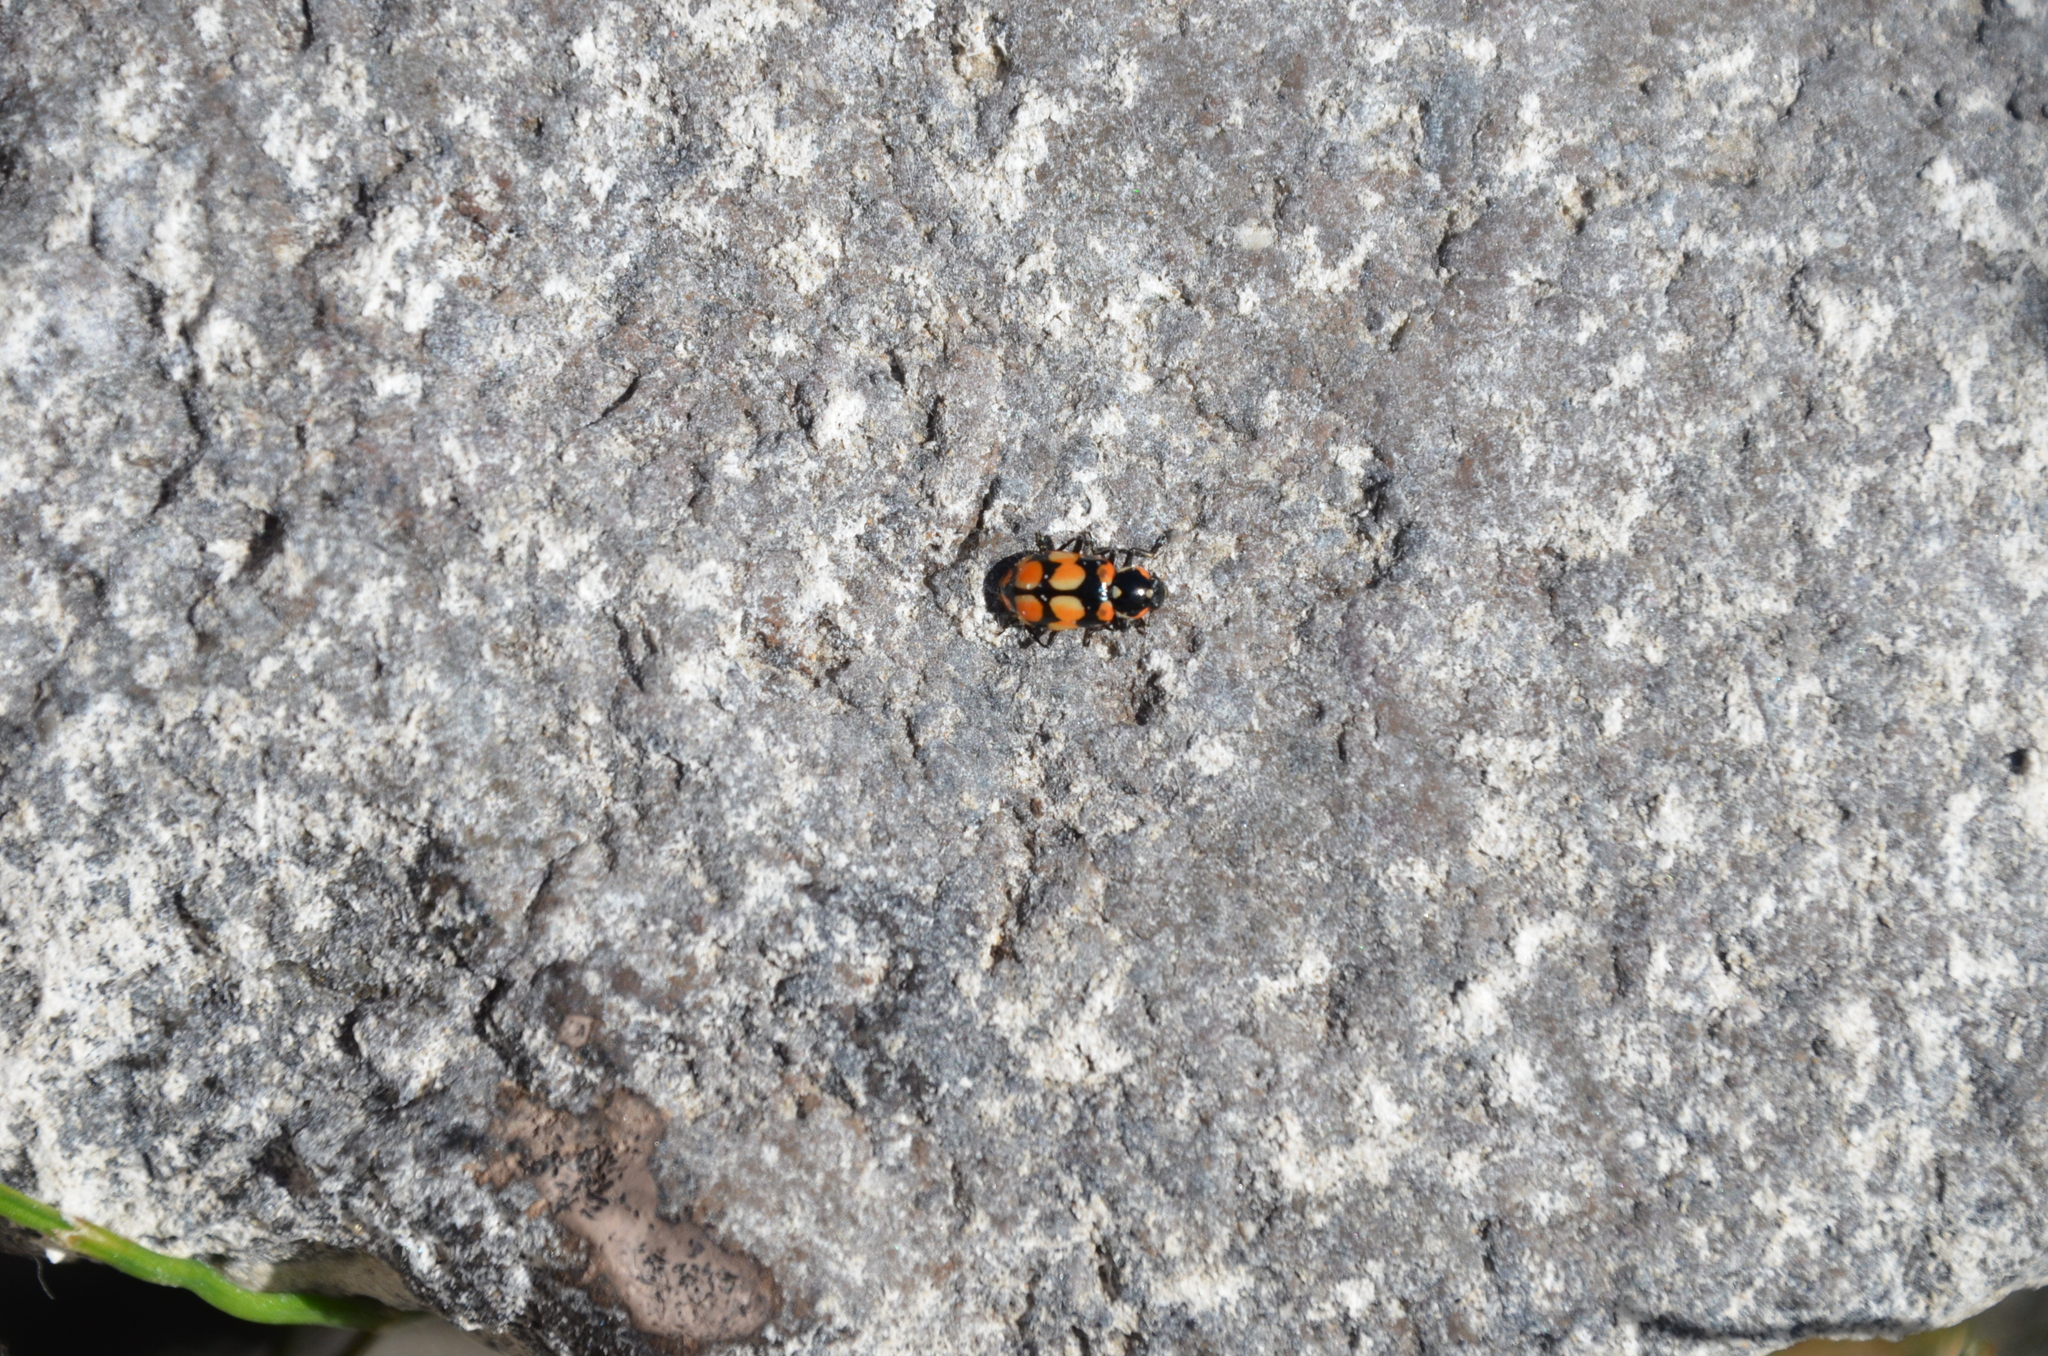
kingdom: Animalia
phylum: Arthropoda
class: Insecta
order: Coleoptera
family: Coccinellidae
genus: Eriopis
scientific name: Eriopis chilensis
